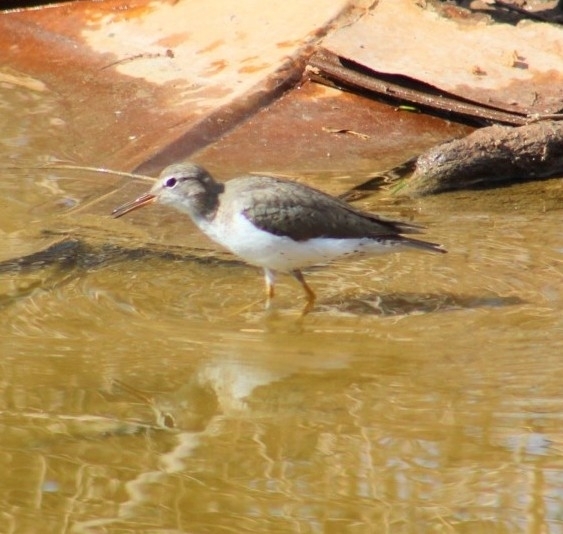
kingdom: Animalia
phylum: Chordata
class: Aves
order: Charadriiformes
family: Scolopacidae
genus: Actitis
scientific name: Actitis macularius
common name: Spotted sandpiper
